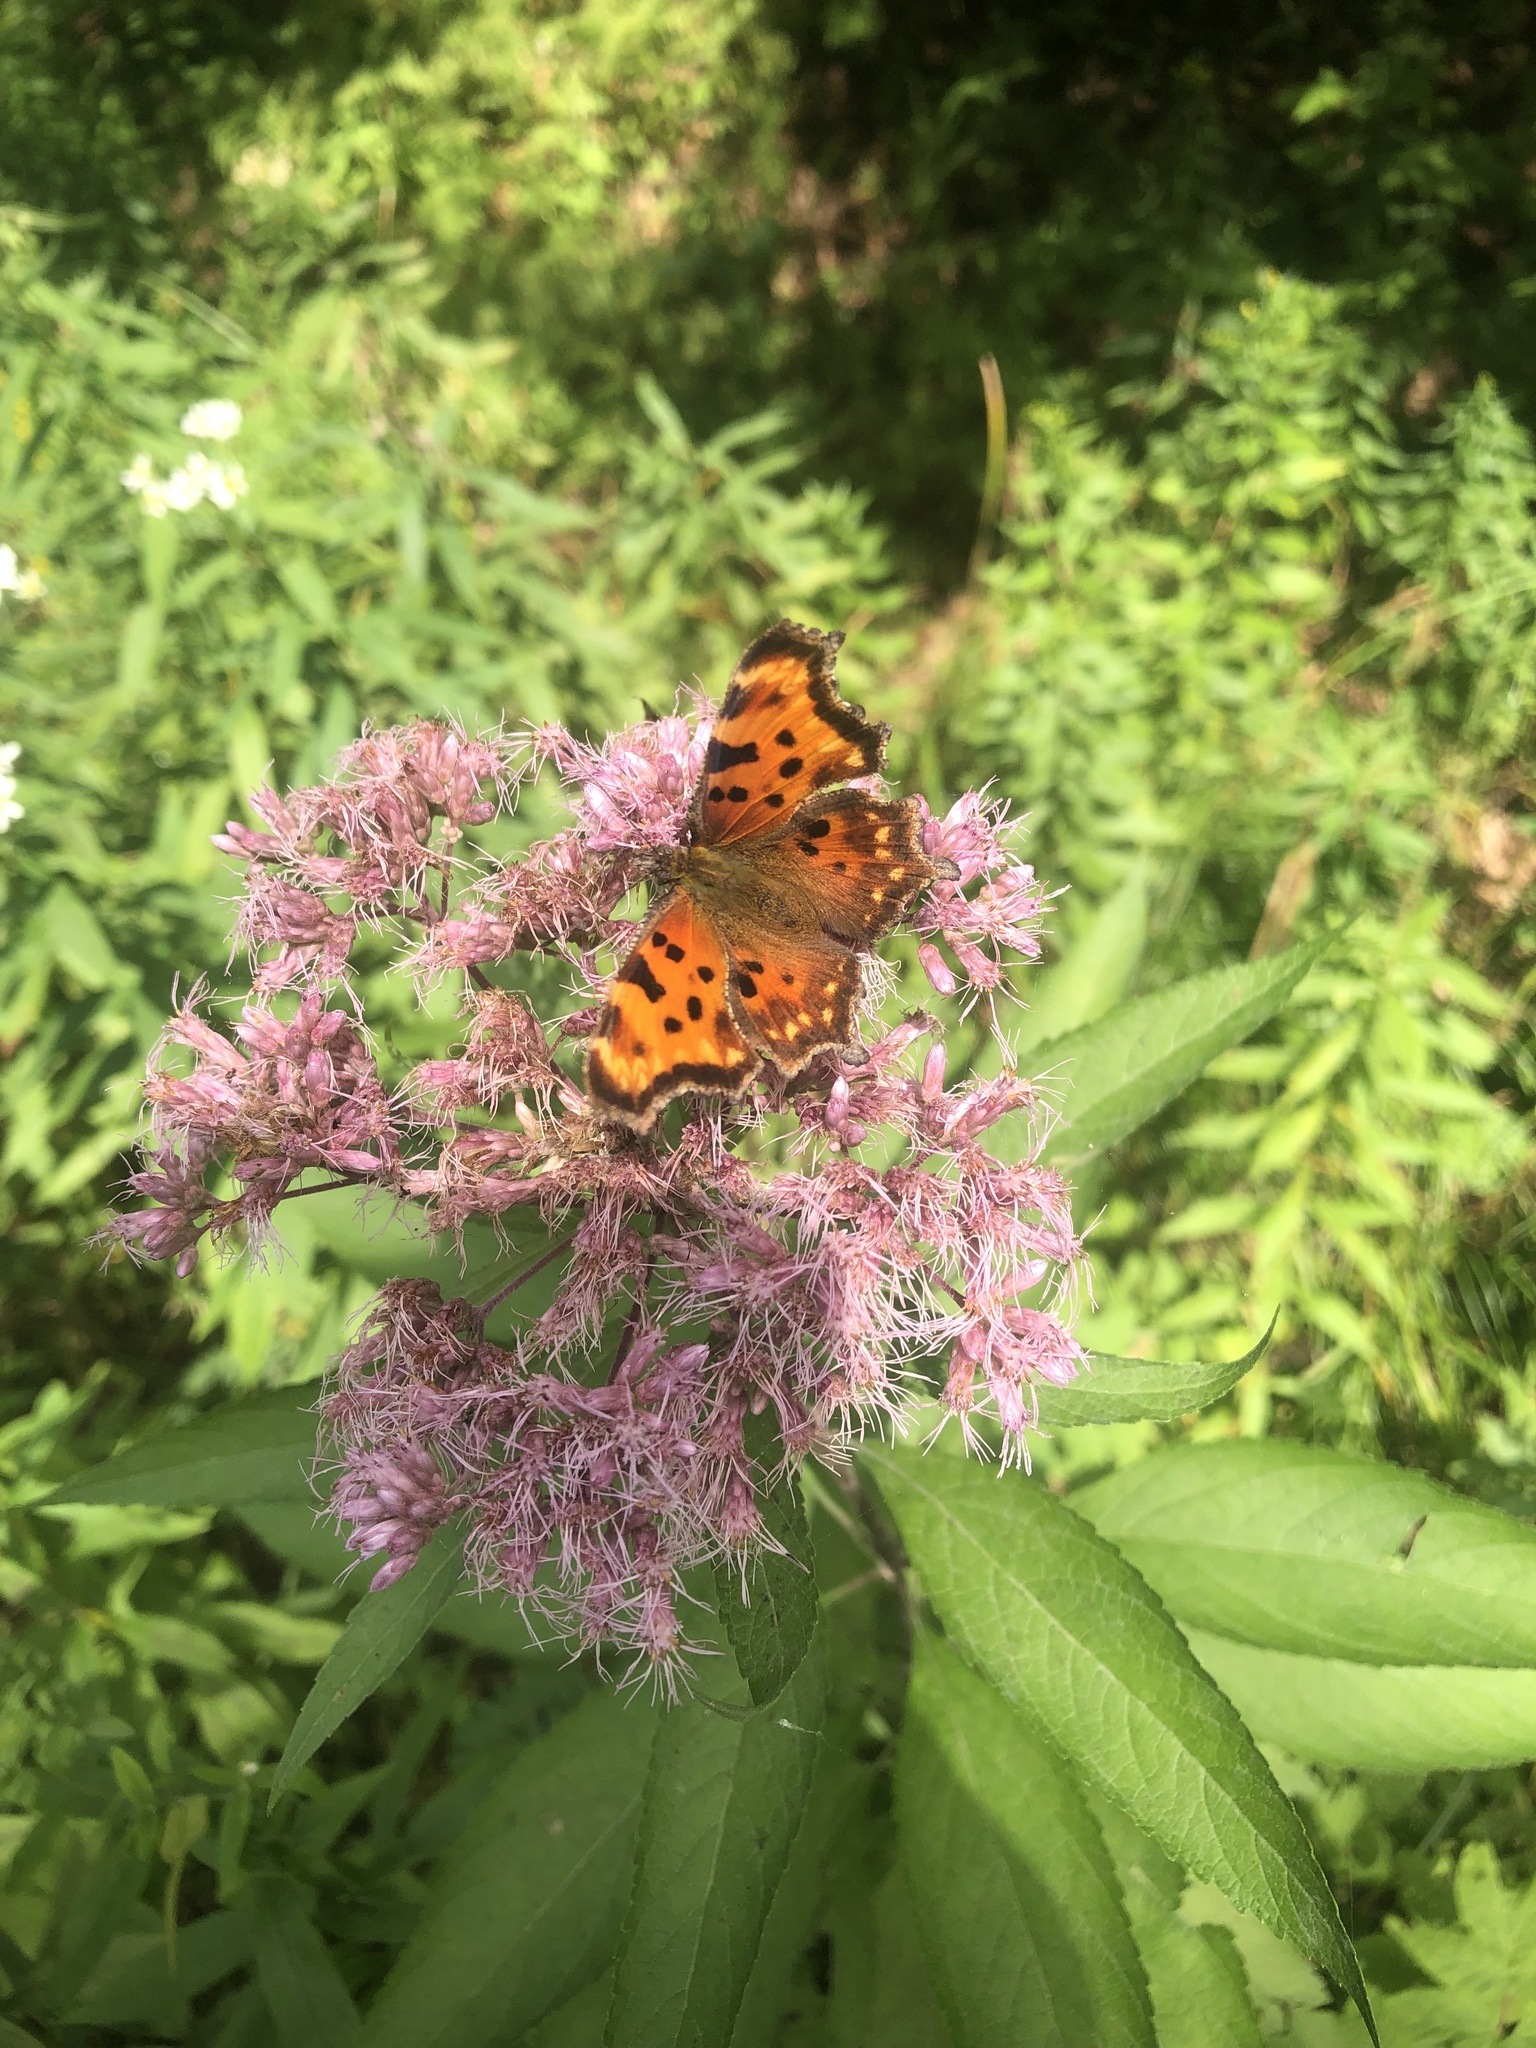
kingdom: Animalia
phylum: Arthropoda
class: Insecta
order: Lepidoptera
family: Nymphalidae
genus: Polygonia
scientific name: Polygonia comma
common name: Eastern comma
